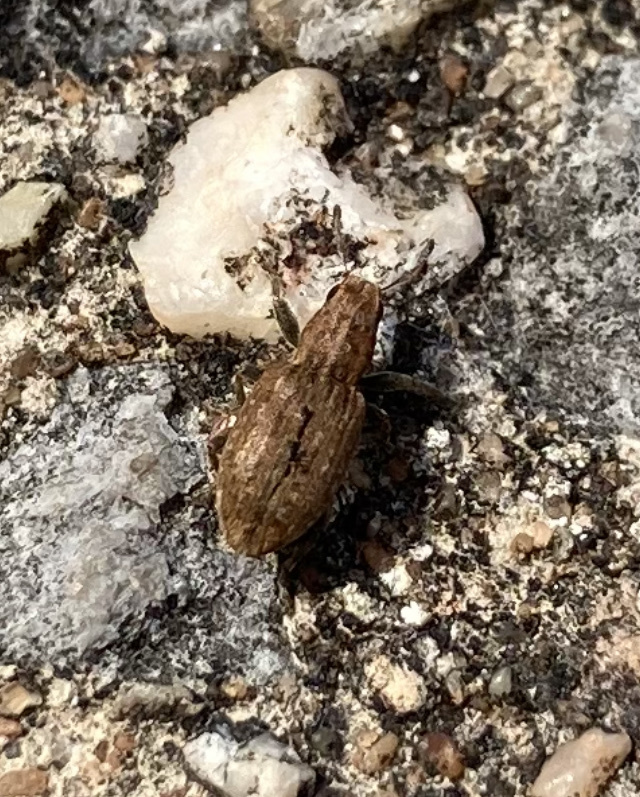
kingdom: Animalia
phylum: Arthropoda
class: Insecta
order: Coleoptera
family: Curculionidae
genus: Sitona
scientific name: Sitona obsoletus
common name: Weevil
